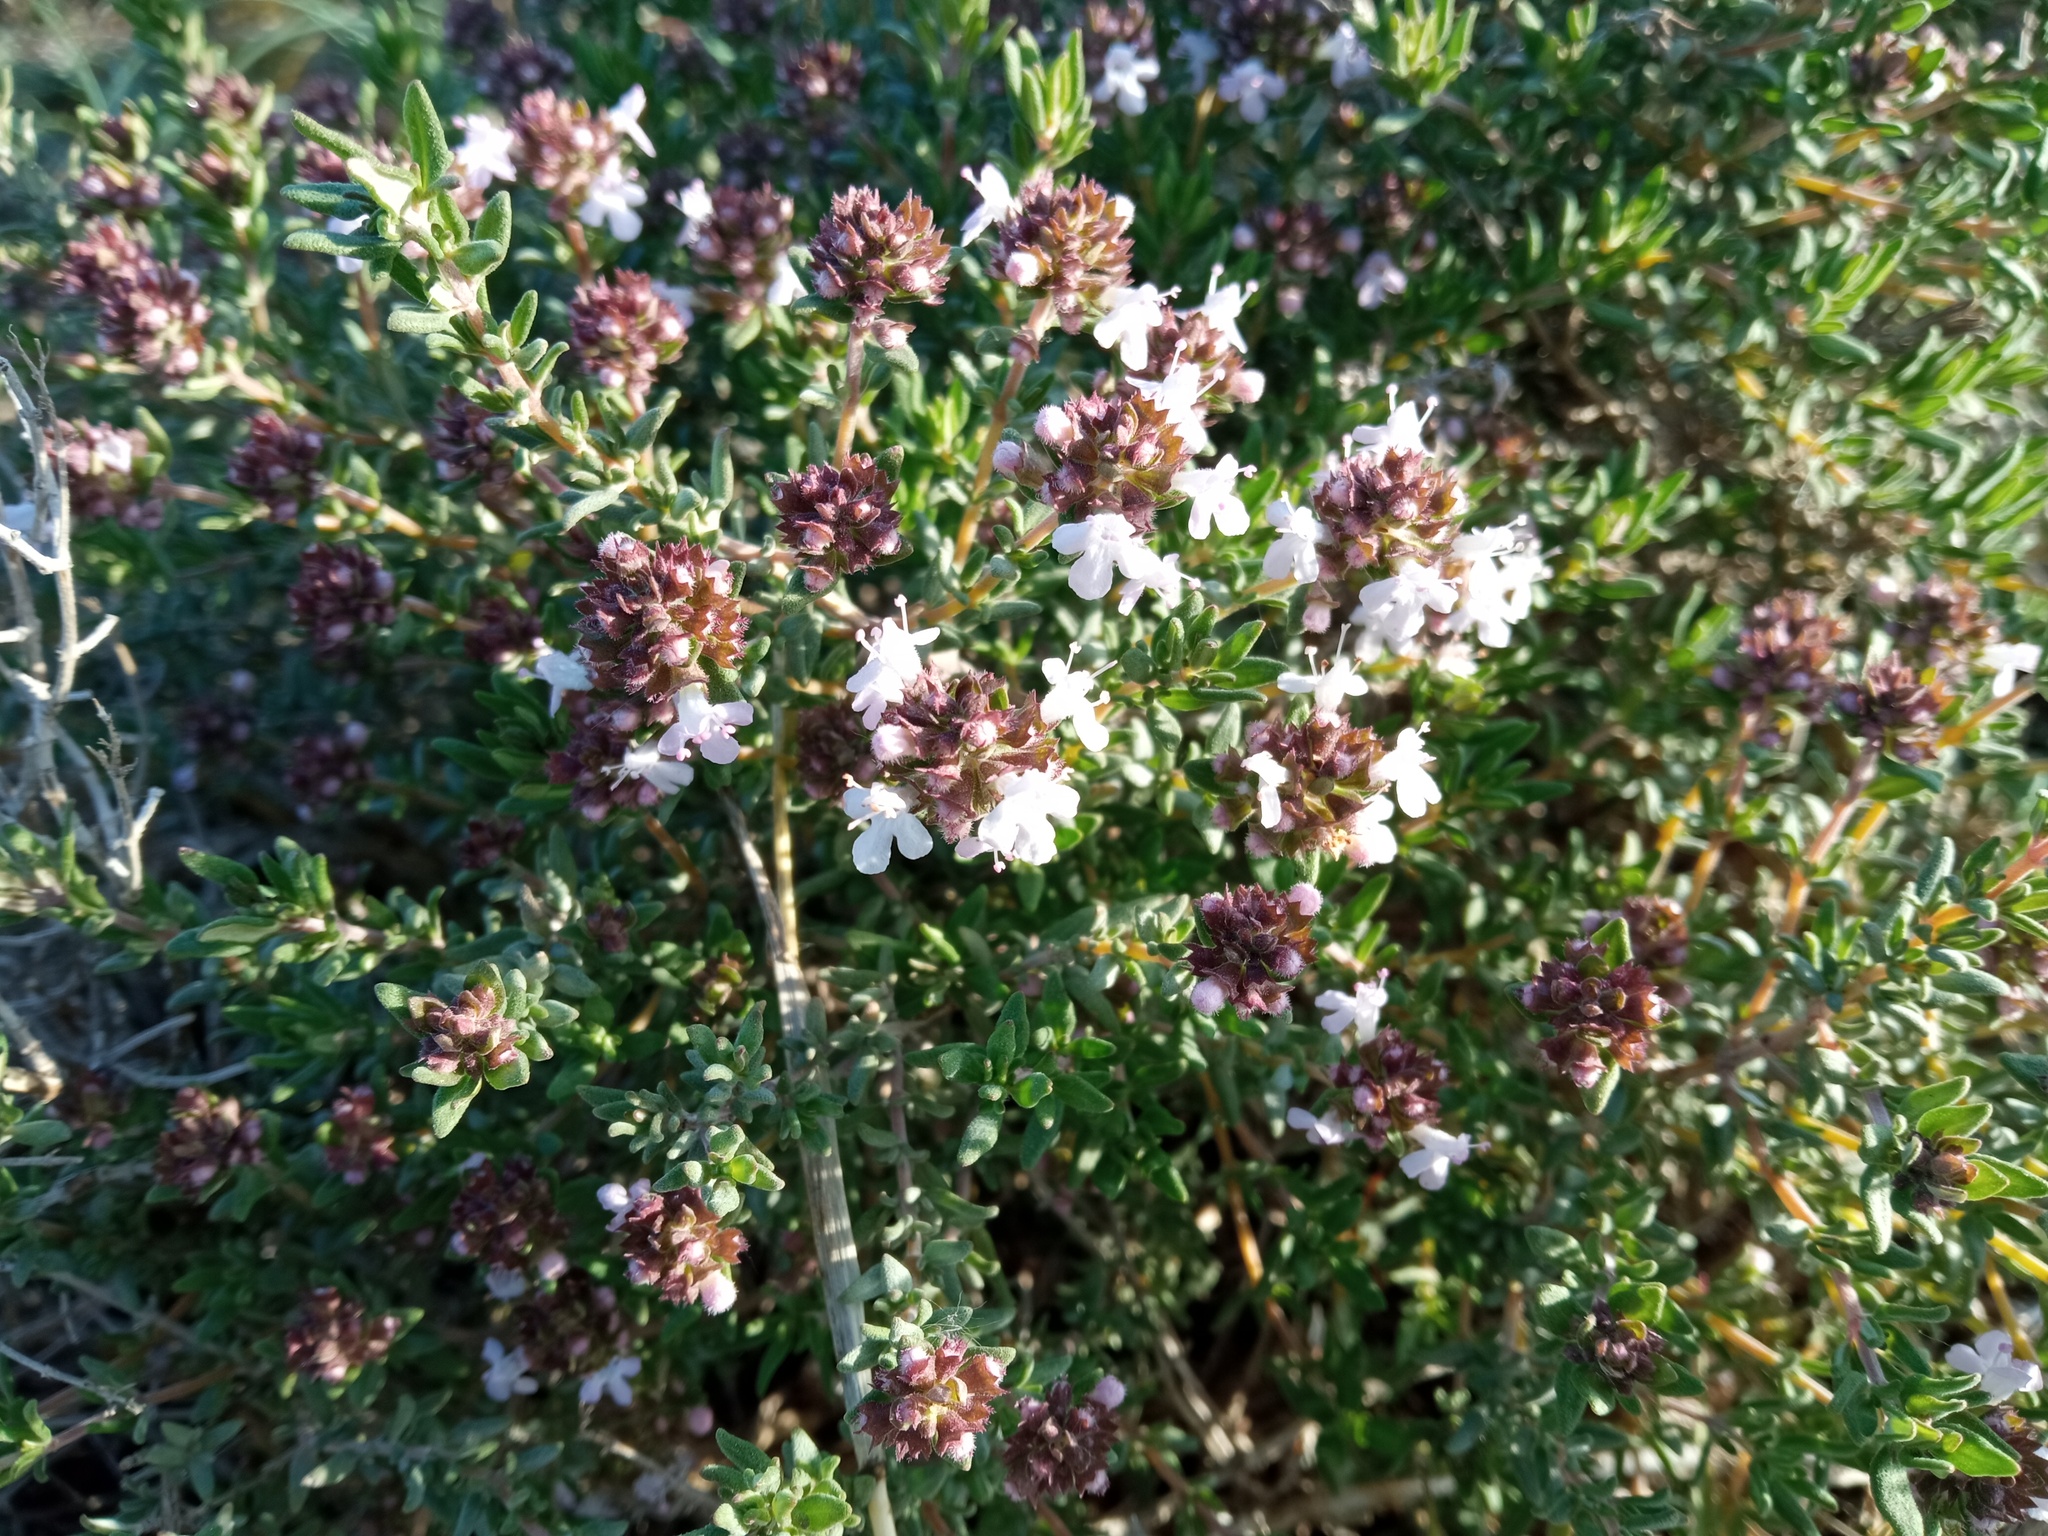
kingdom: Plantae
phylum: Tracheophyta
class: Magnoliopsida
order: Lamiales
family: Lamiaceae
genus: Thymus
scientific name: Thymus vulgaris
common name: Garden thyme
